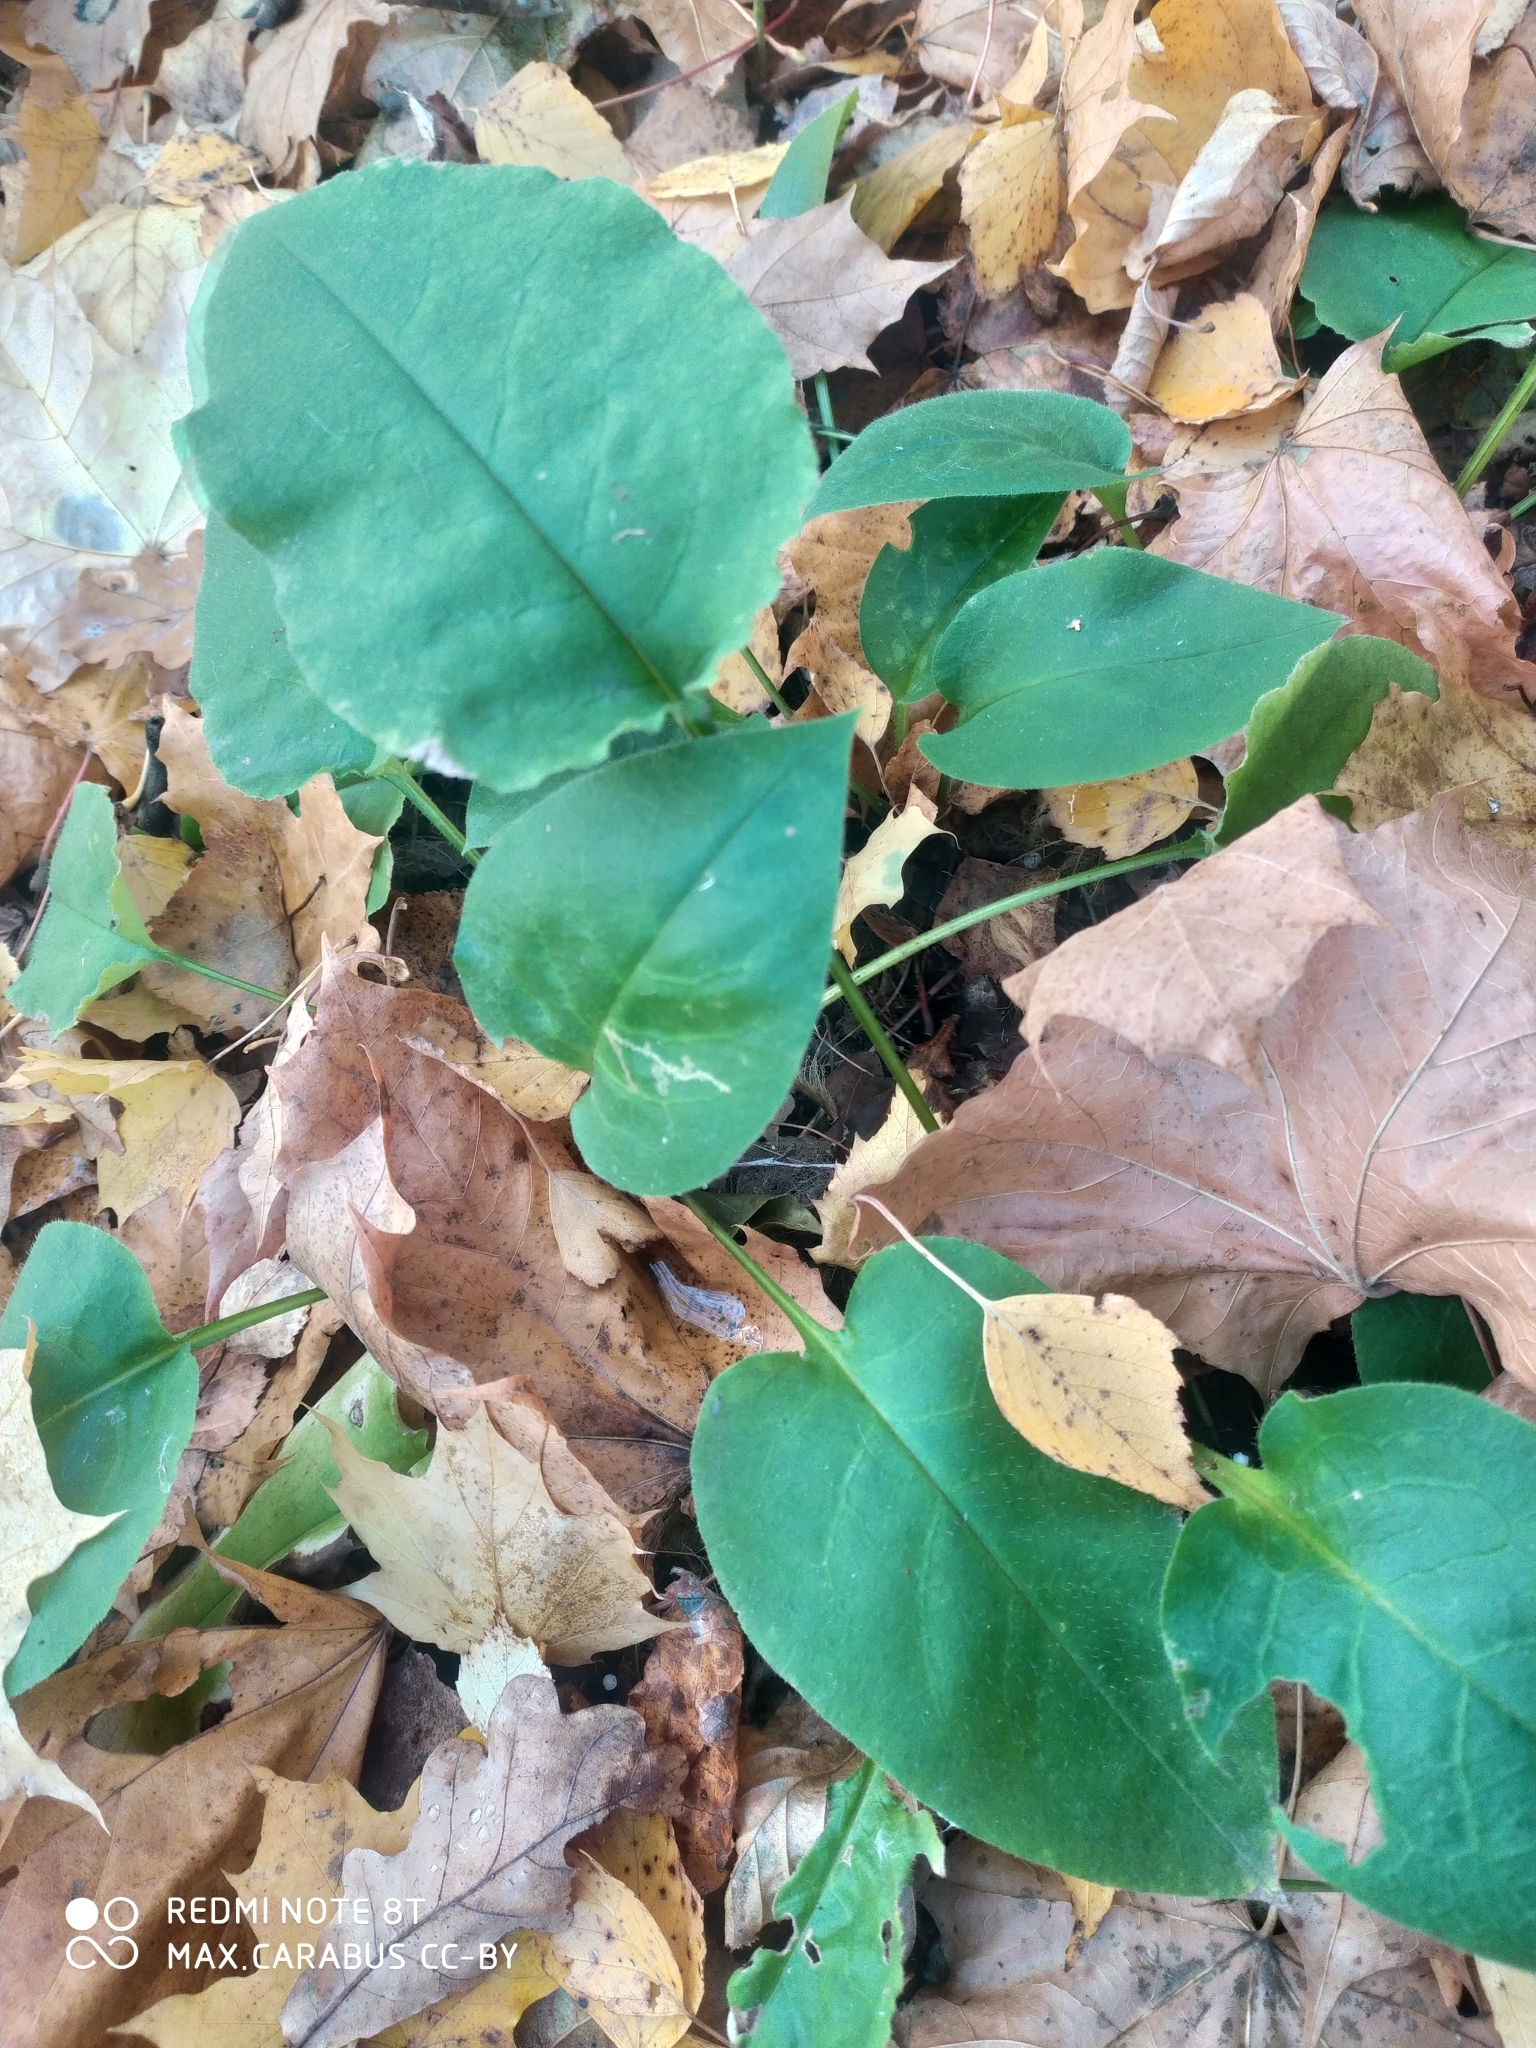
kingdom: Plantae
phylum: Tracheophyta
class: Magnoliopsida
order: Boraginales
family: Boraginaceae
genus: Pulmonaria
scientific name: Pulmonaria obscura
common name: Suffolk lungwort
